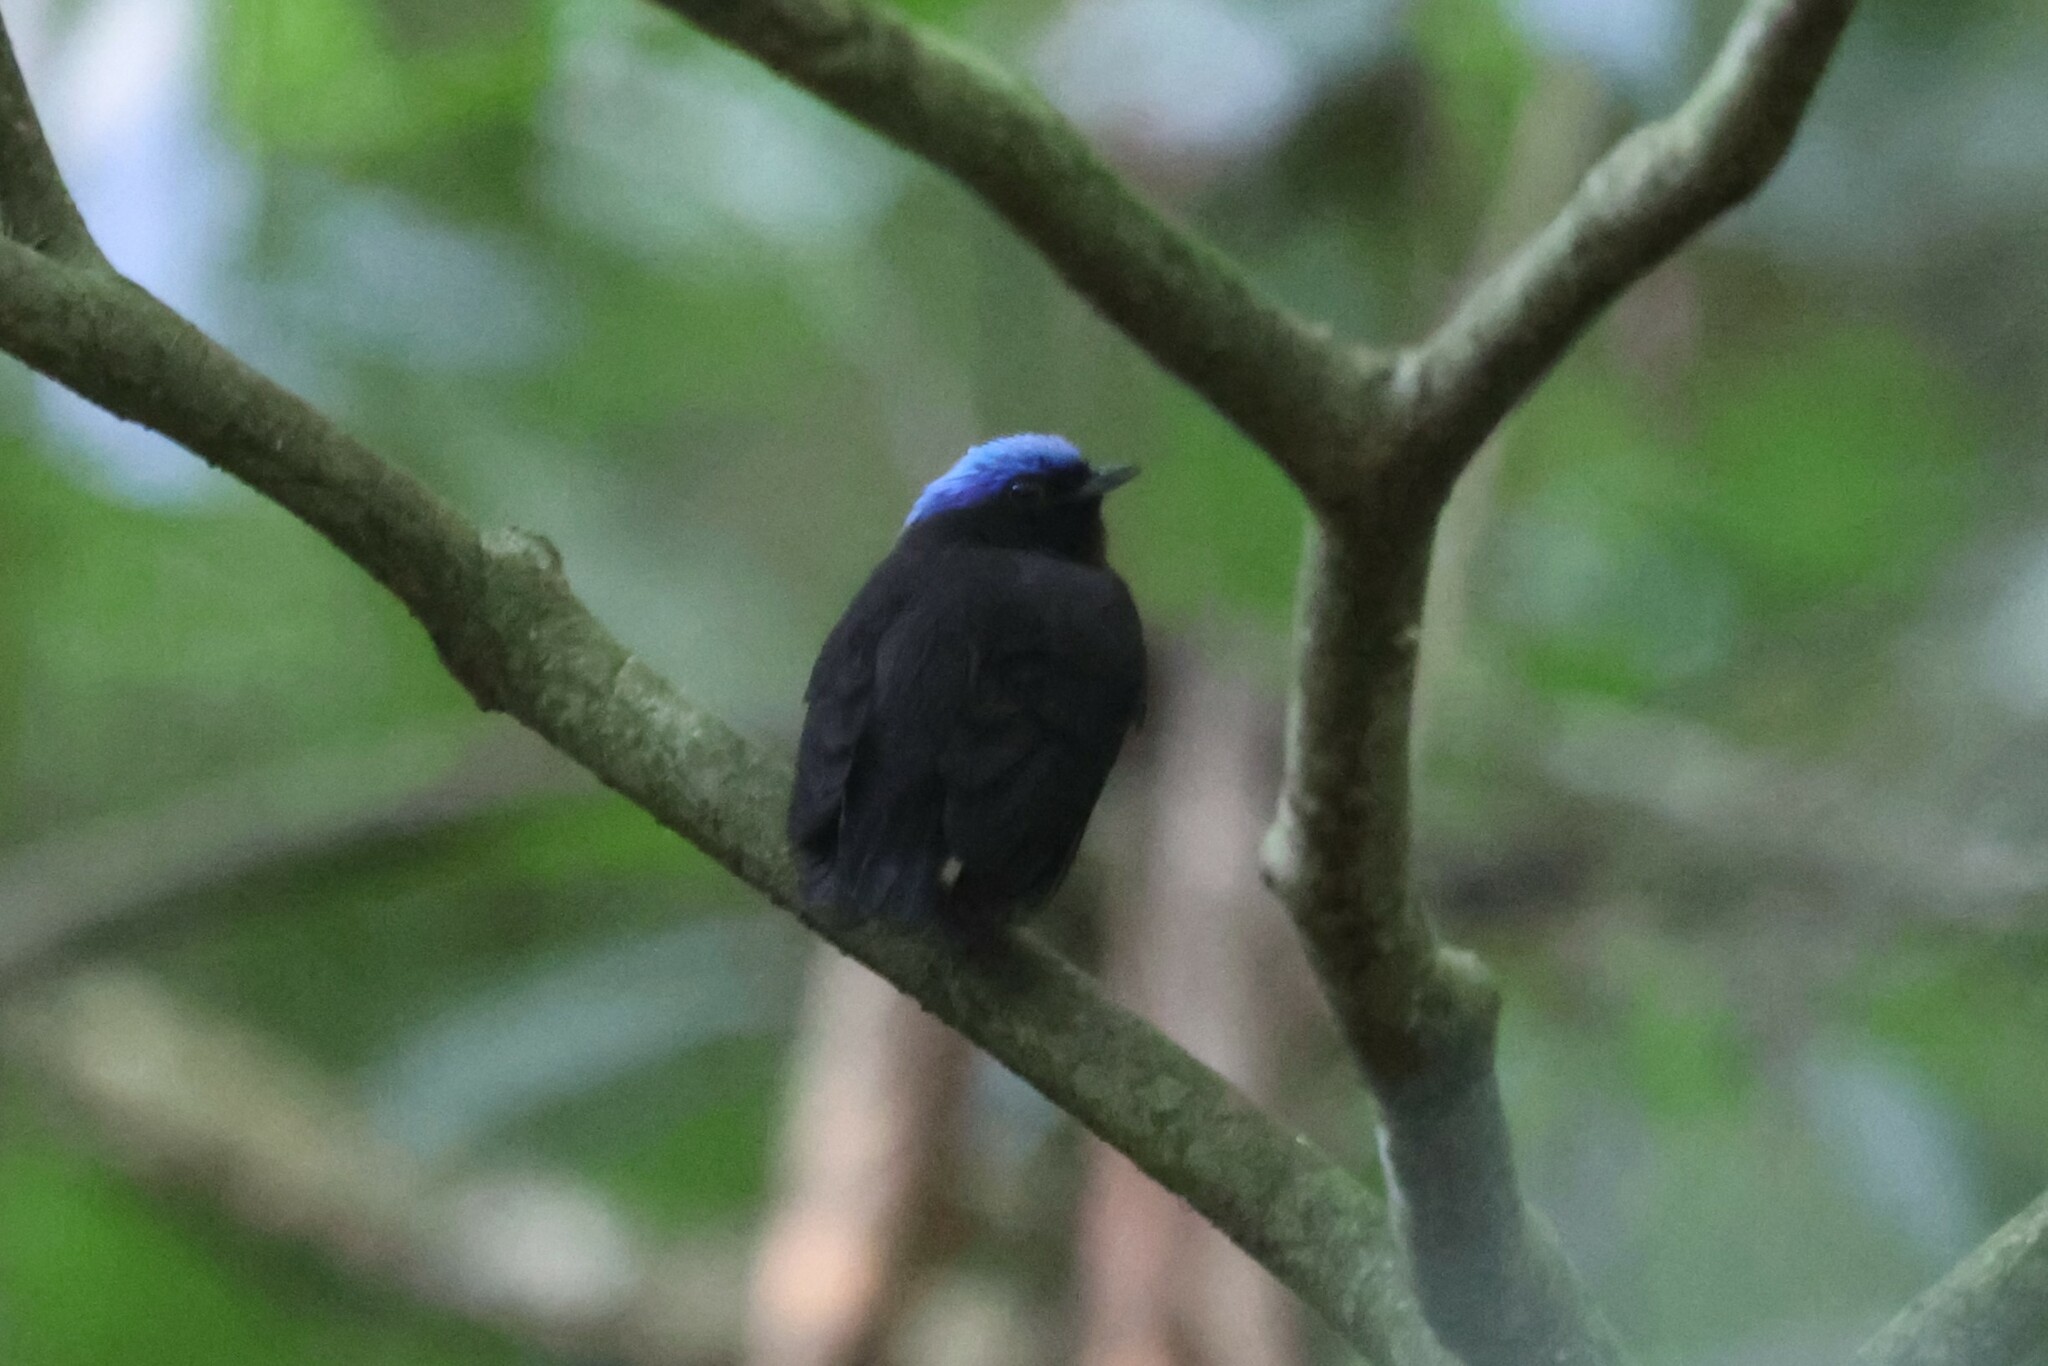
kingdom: Animalia
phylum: Chordata
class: Aves
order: Passeriformes
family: Pipridae
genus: Lepidothrix
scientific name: Lepidothrix coronata
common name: Blue-crowned manakin
